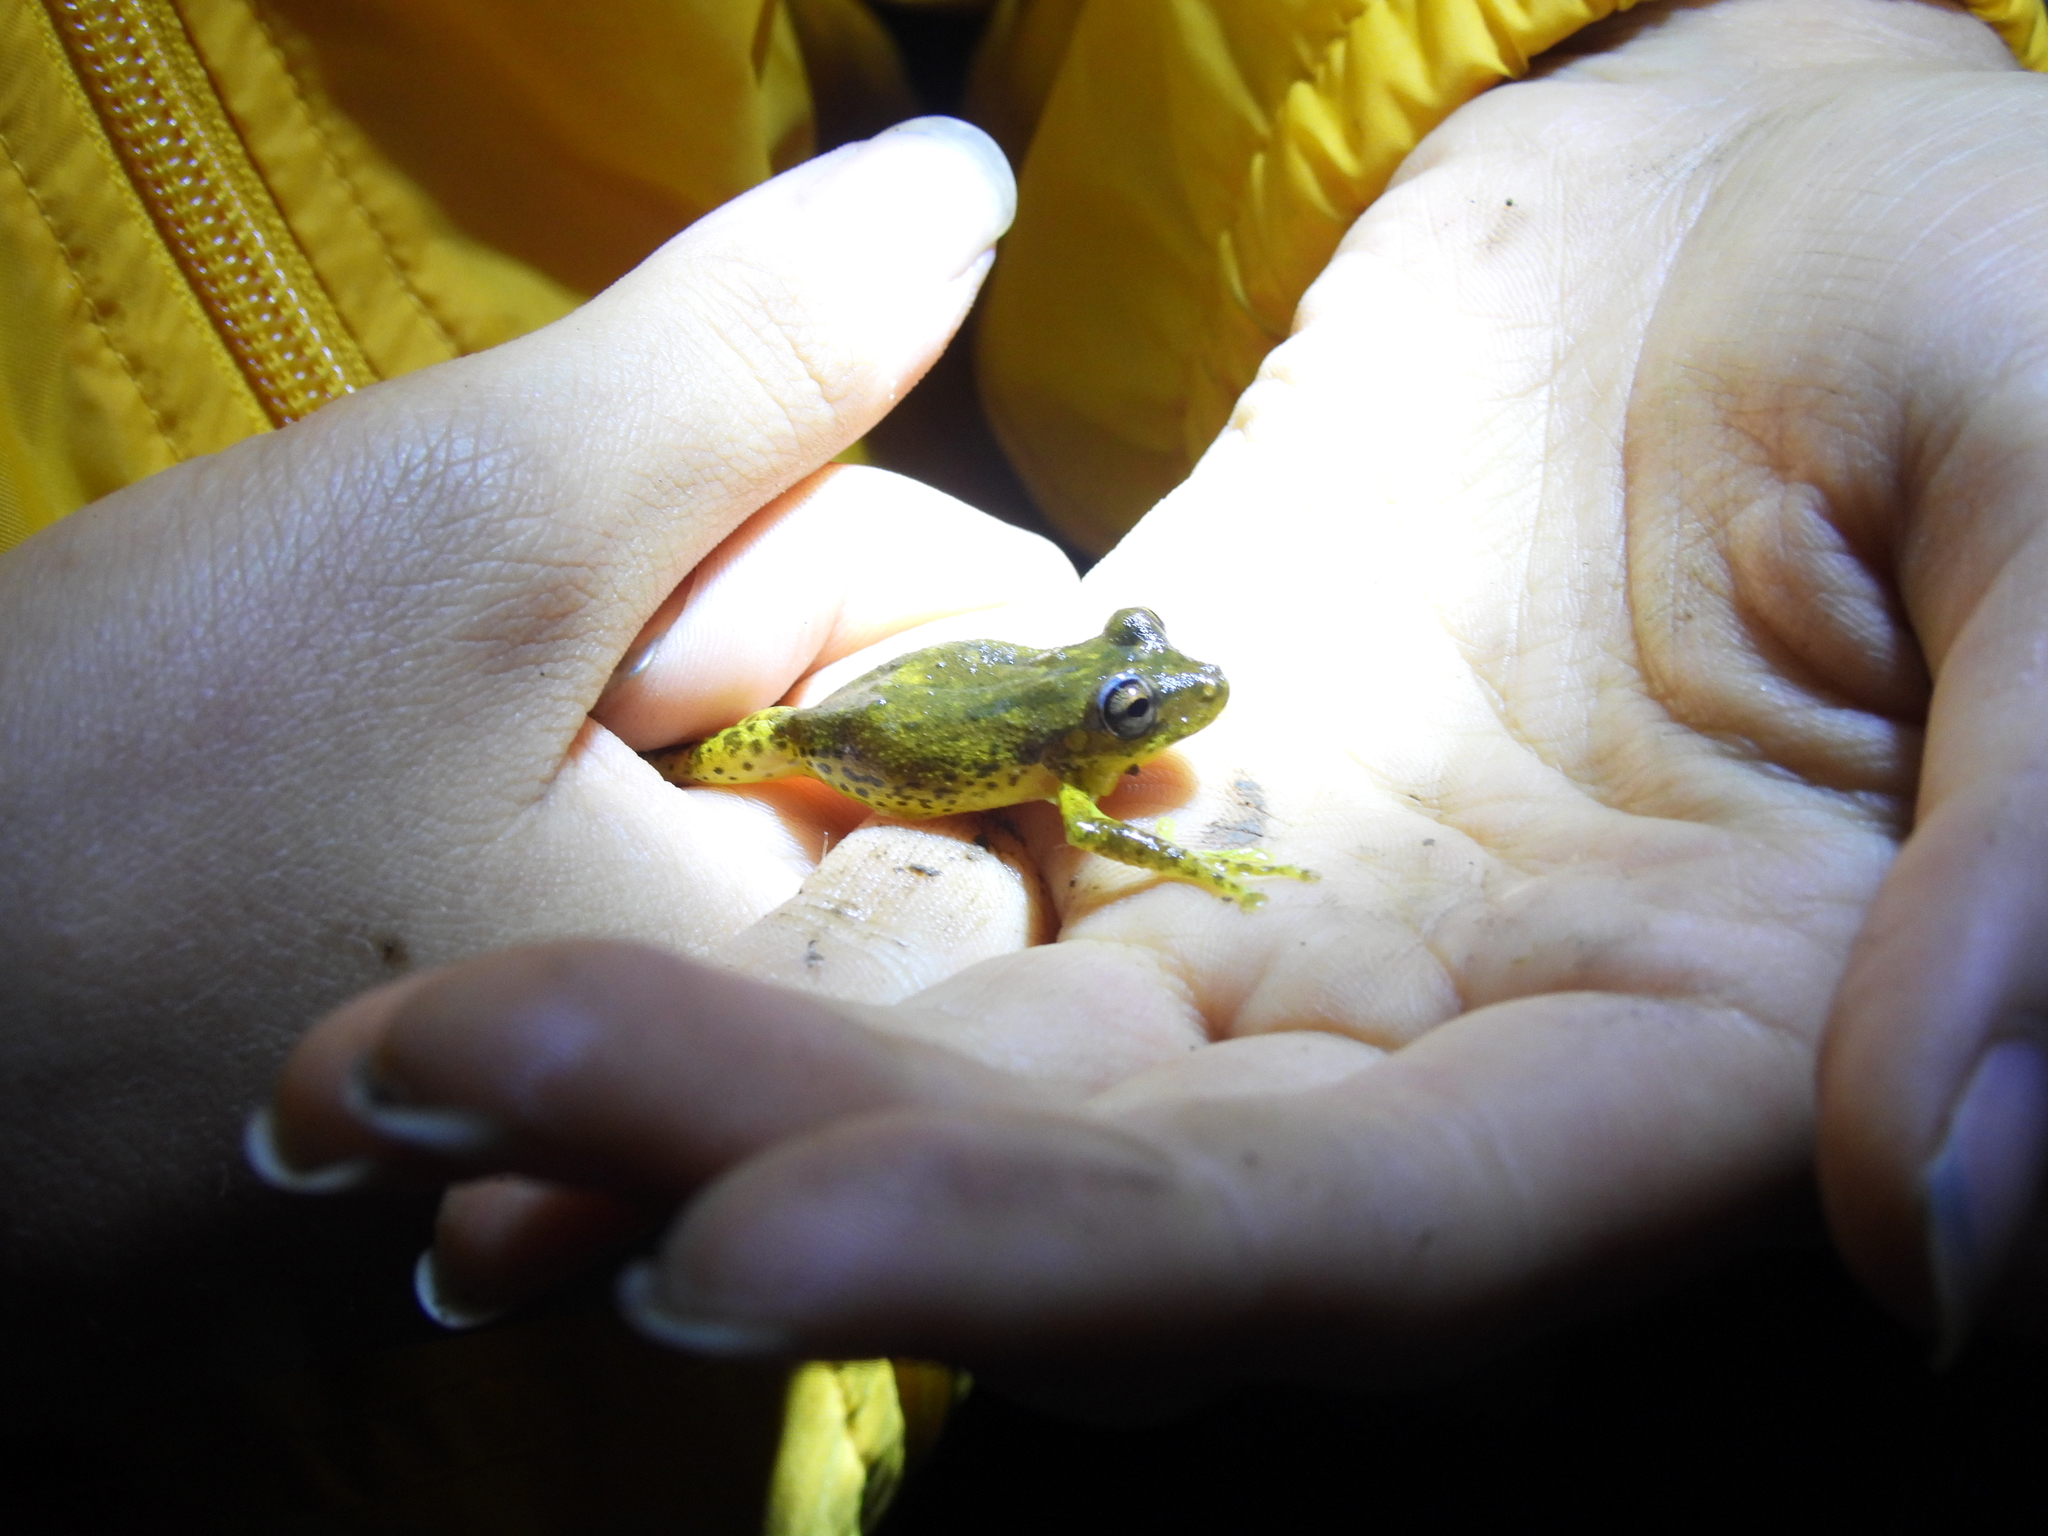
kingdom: Animalia
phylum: Chordata
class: Amphibia
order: Anura
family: Hylidae
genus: Scinax
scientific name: Scinax caprarius
